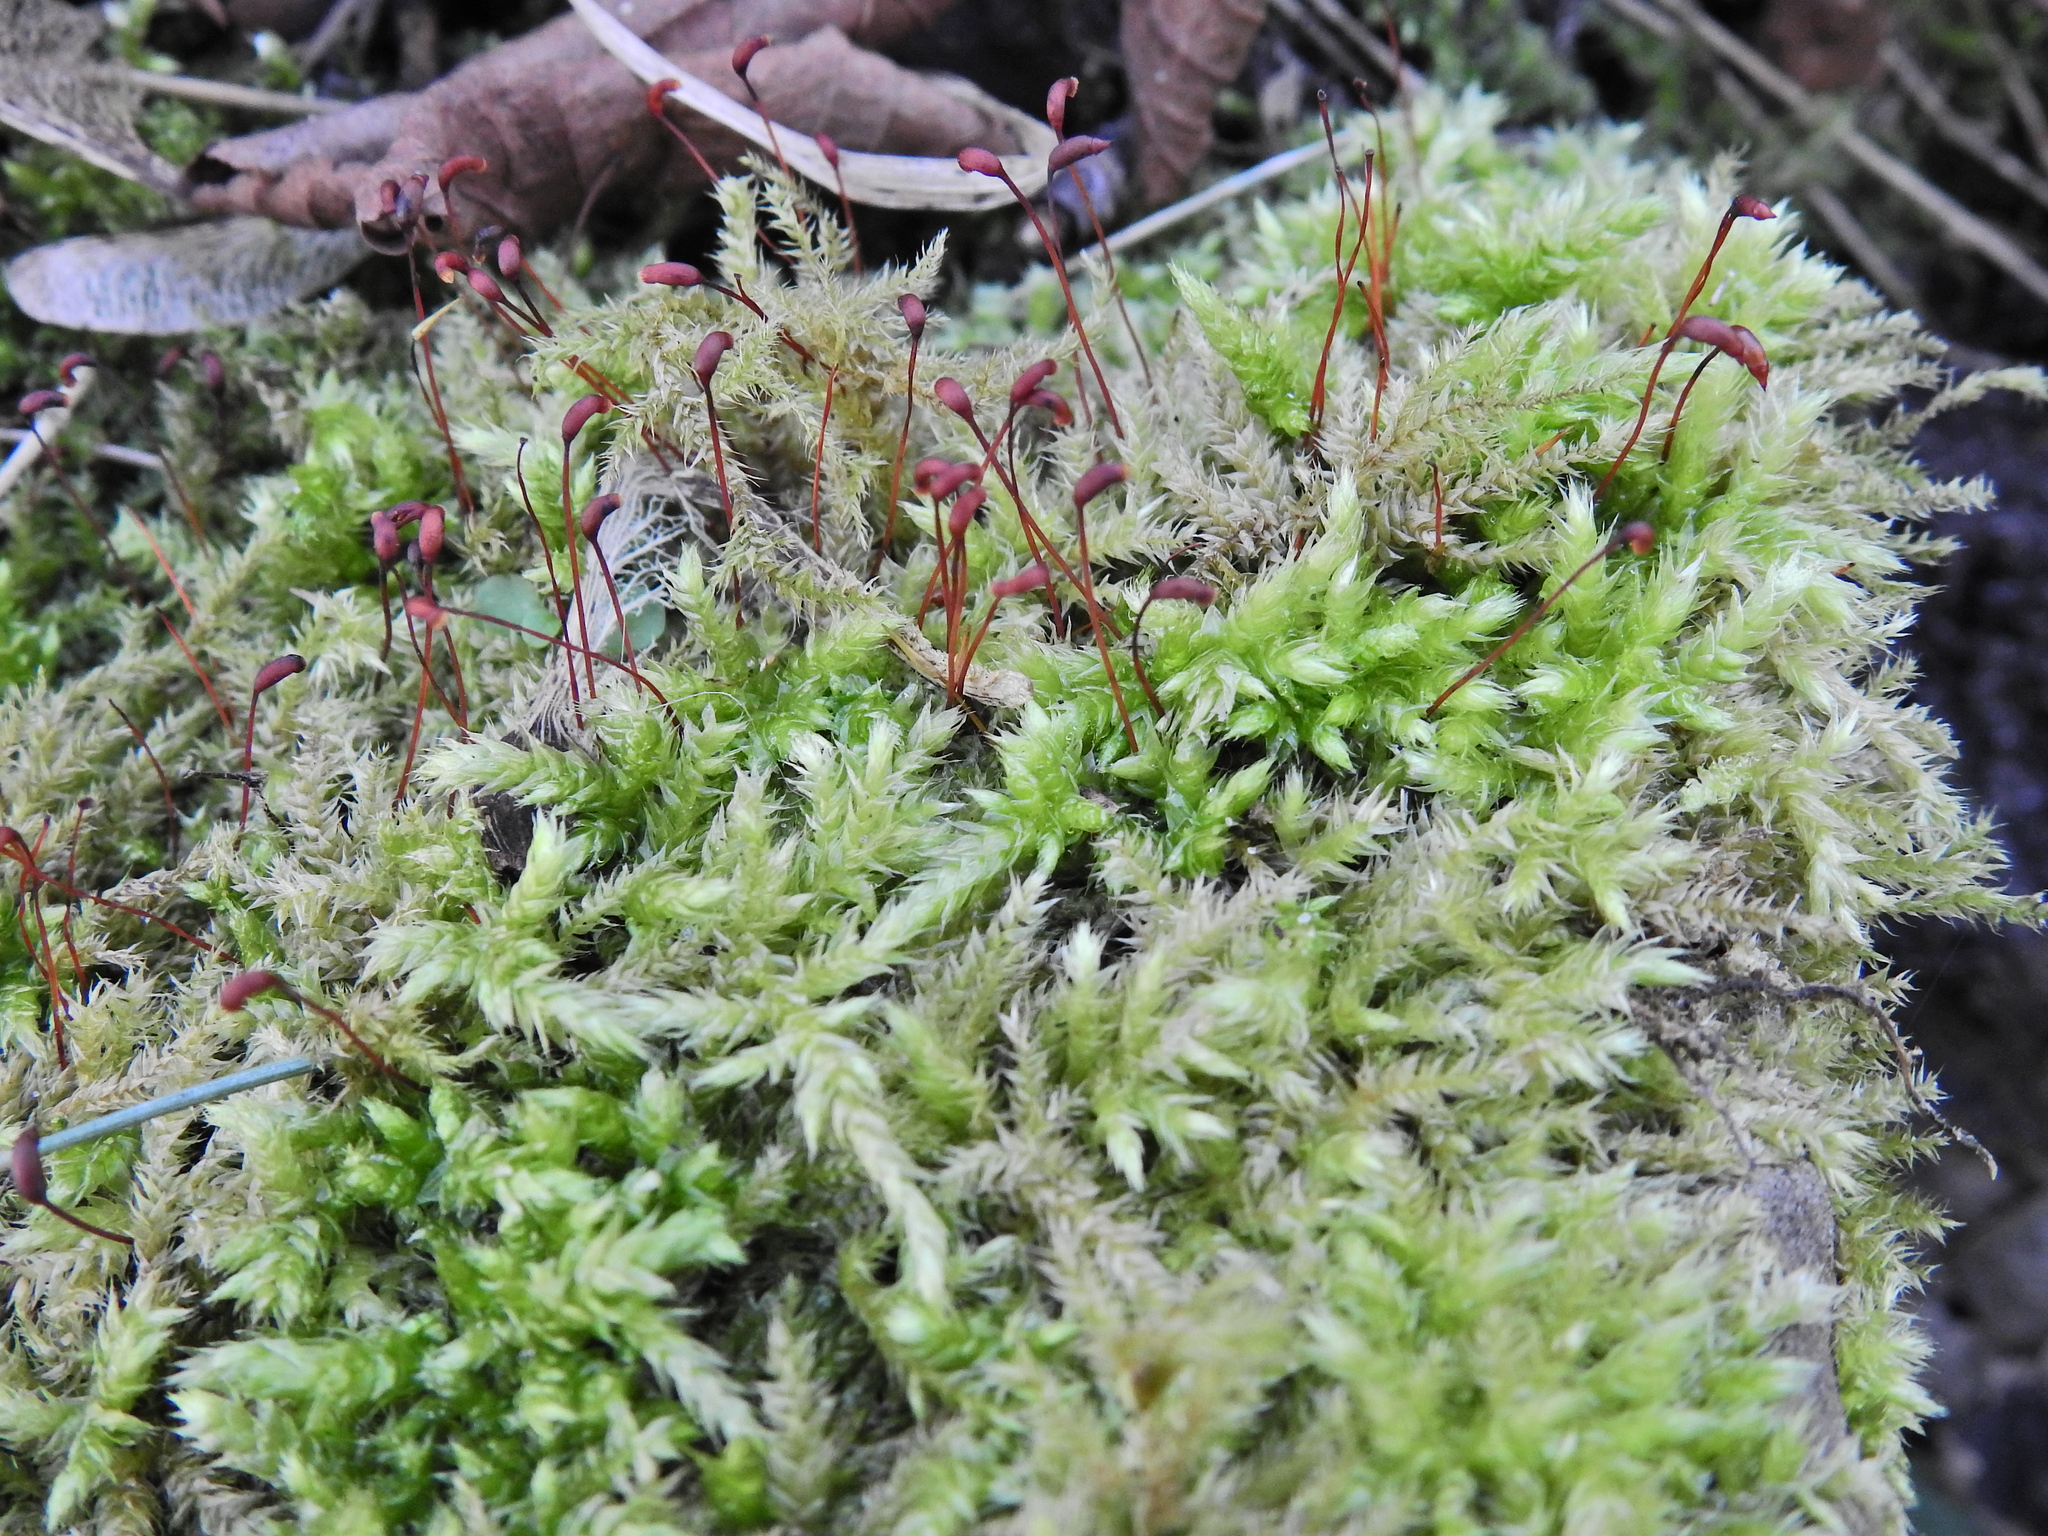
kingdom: Plantae
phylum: Bryophyta
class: Bryopsida
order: Hypnales
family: Brachytheciaceae
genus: Brachythecium
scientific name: Brachythecium rutabulum
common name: Rough-stalked feather-moss
